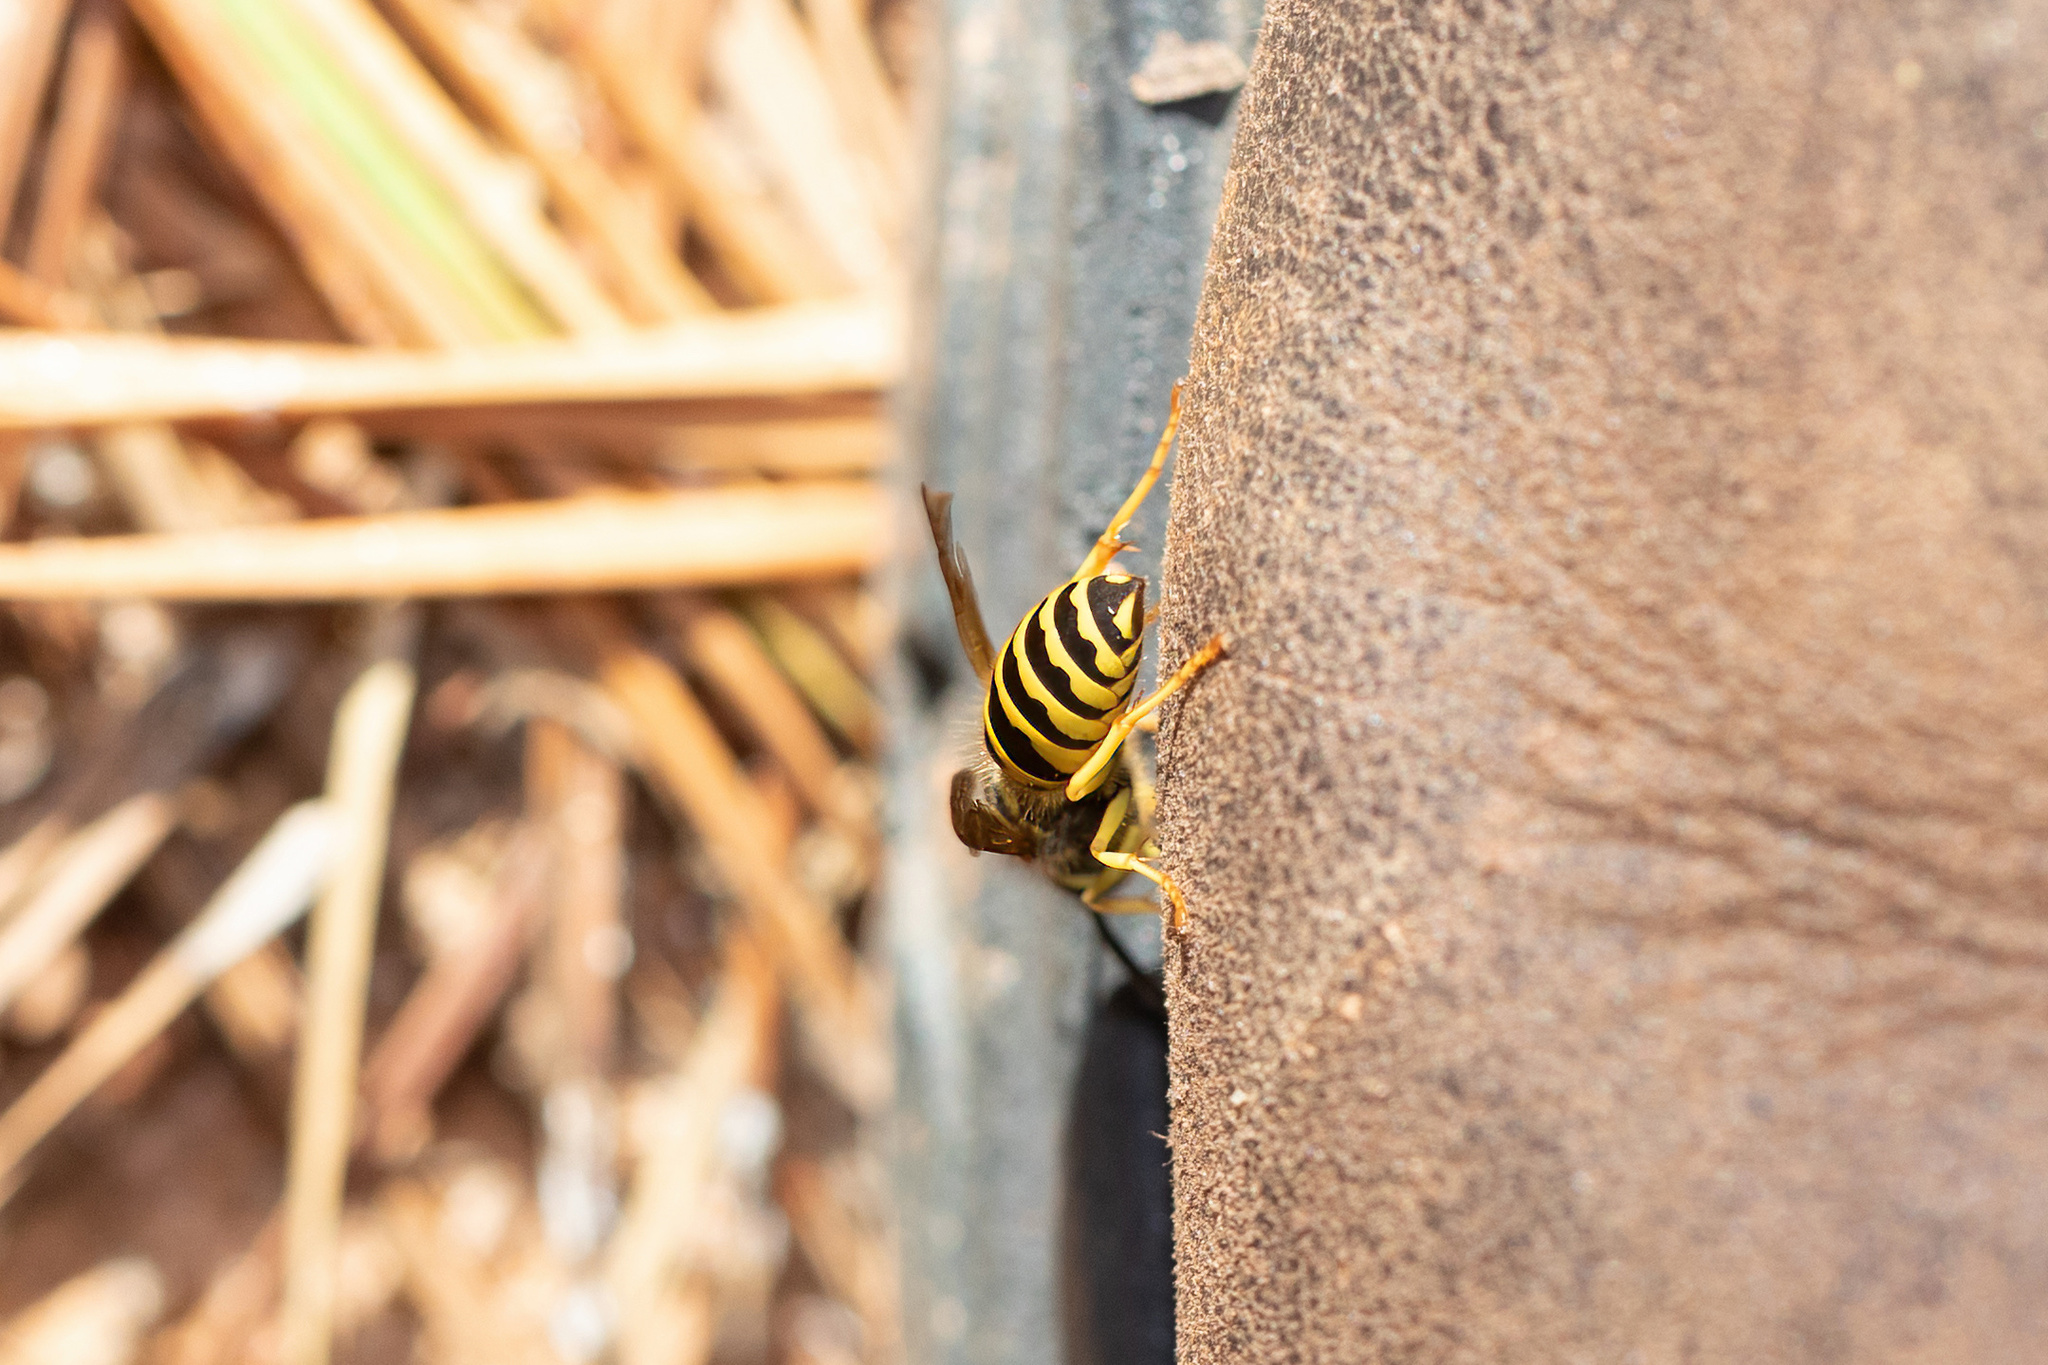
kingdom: Animalia
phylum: Arthropoda
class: Insecta
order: Hymenoptera
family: Vespidae
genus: Vespula
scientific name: Vespula maculifrons
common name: Eastern yellowjacket
